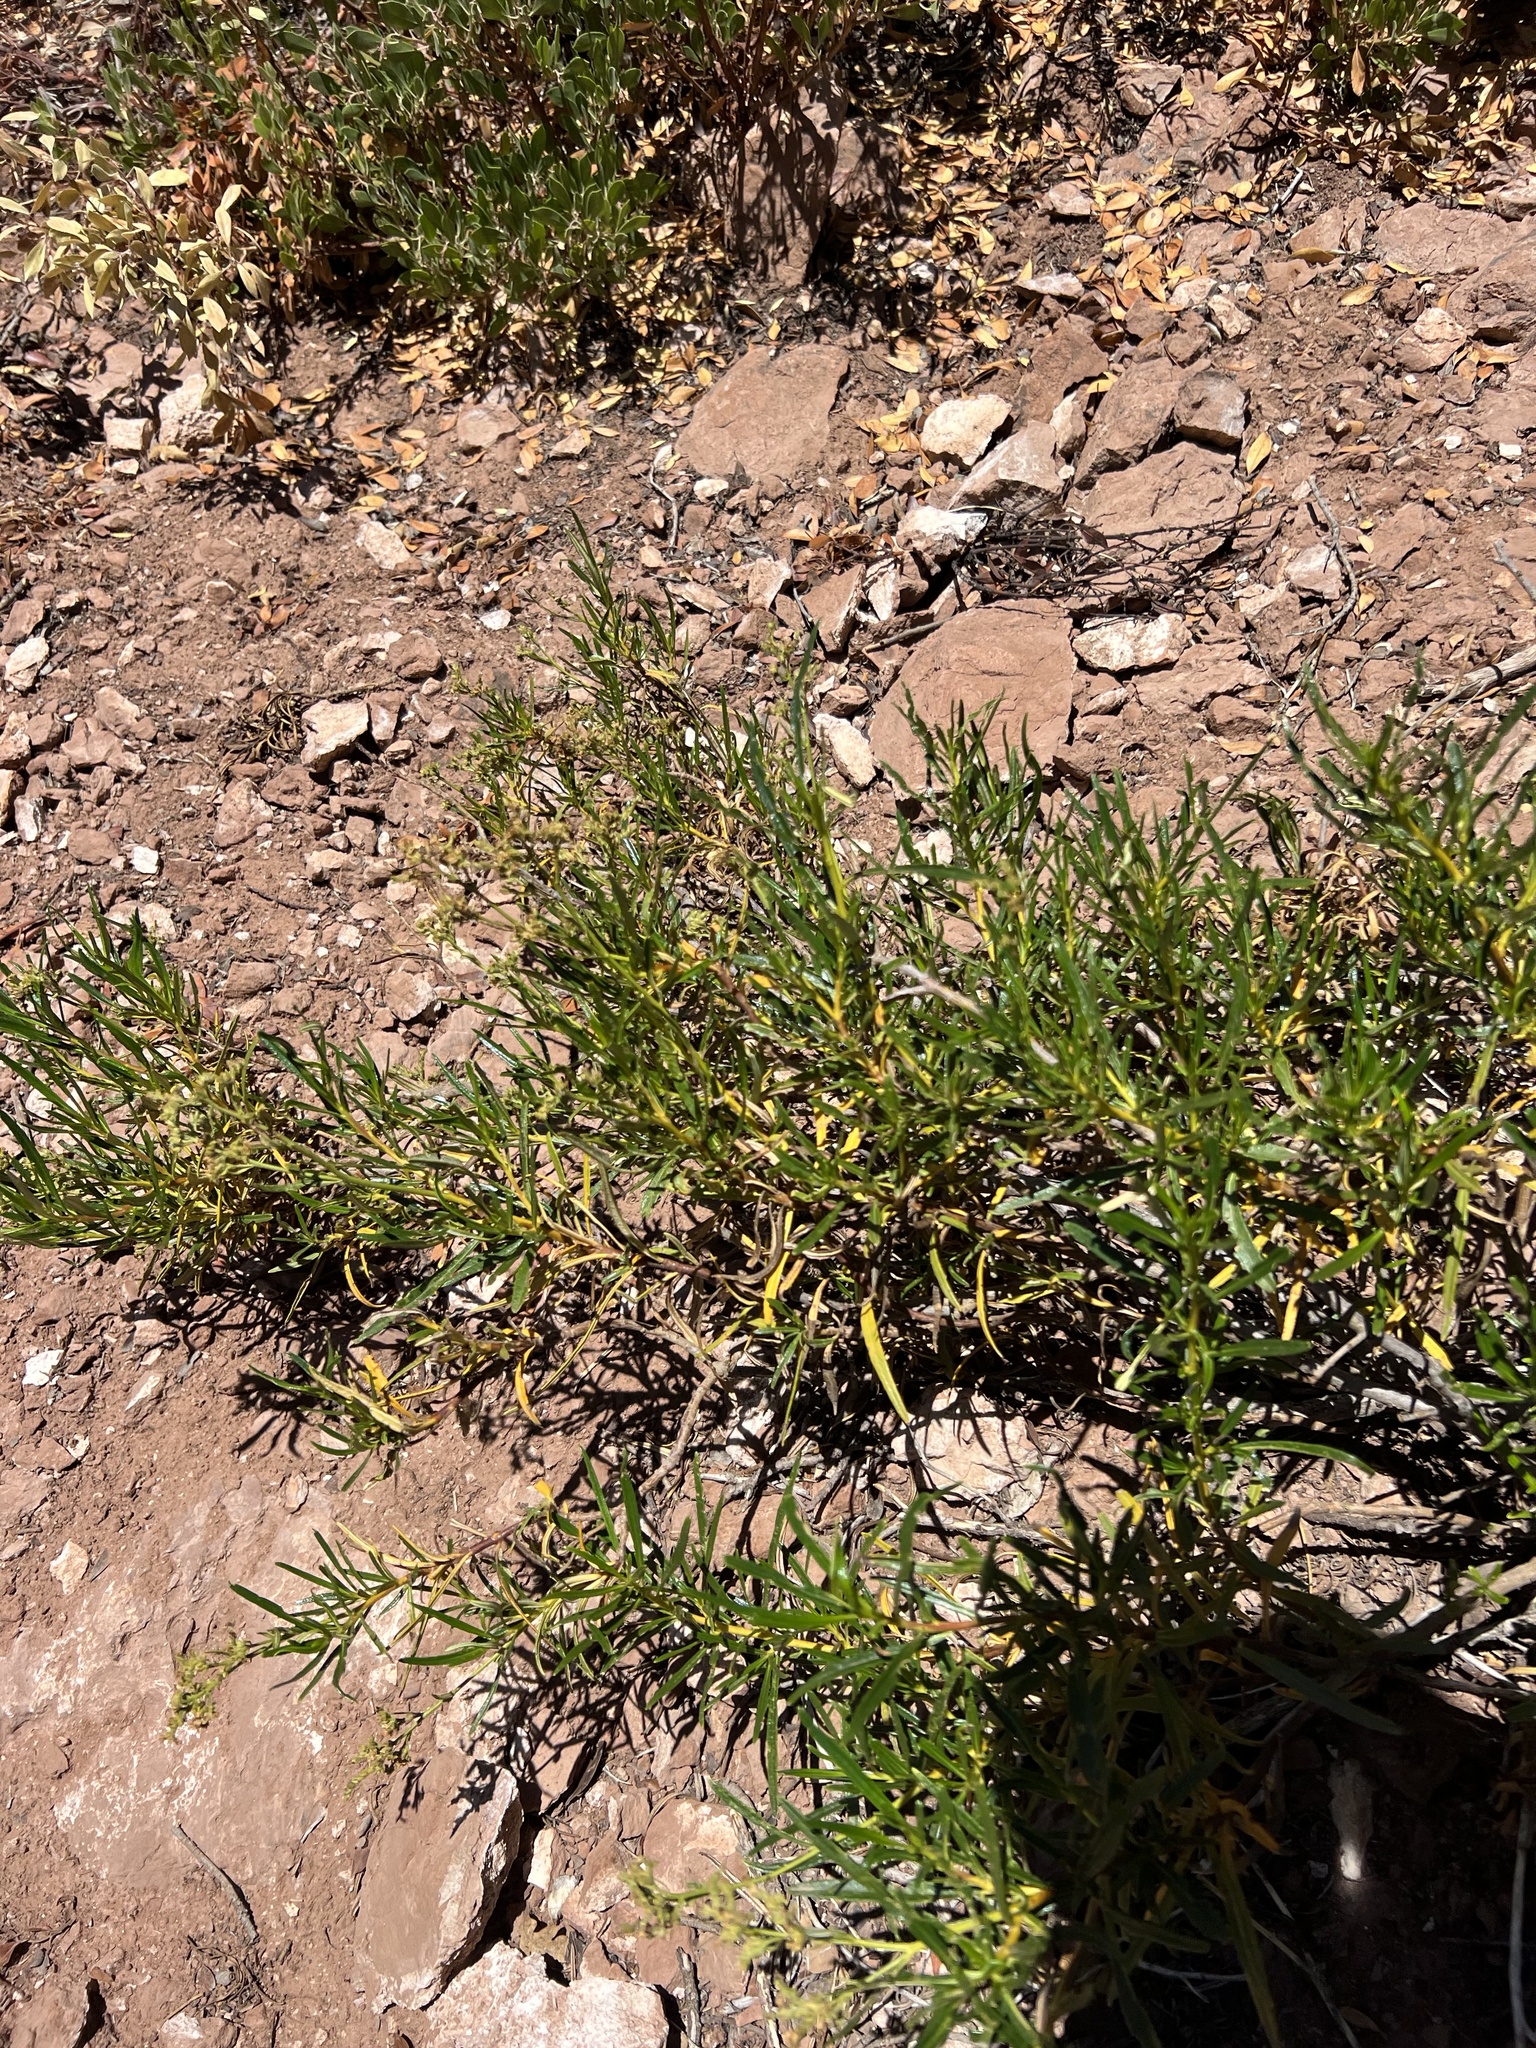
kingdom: Plantae
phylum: Tracheophyta
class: Magnoliopsida
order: Boraginales
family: Namaceae
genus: Eriodictyon
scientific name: Eriodictyon angustifolium
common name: Narrow-leaf yerba santa
